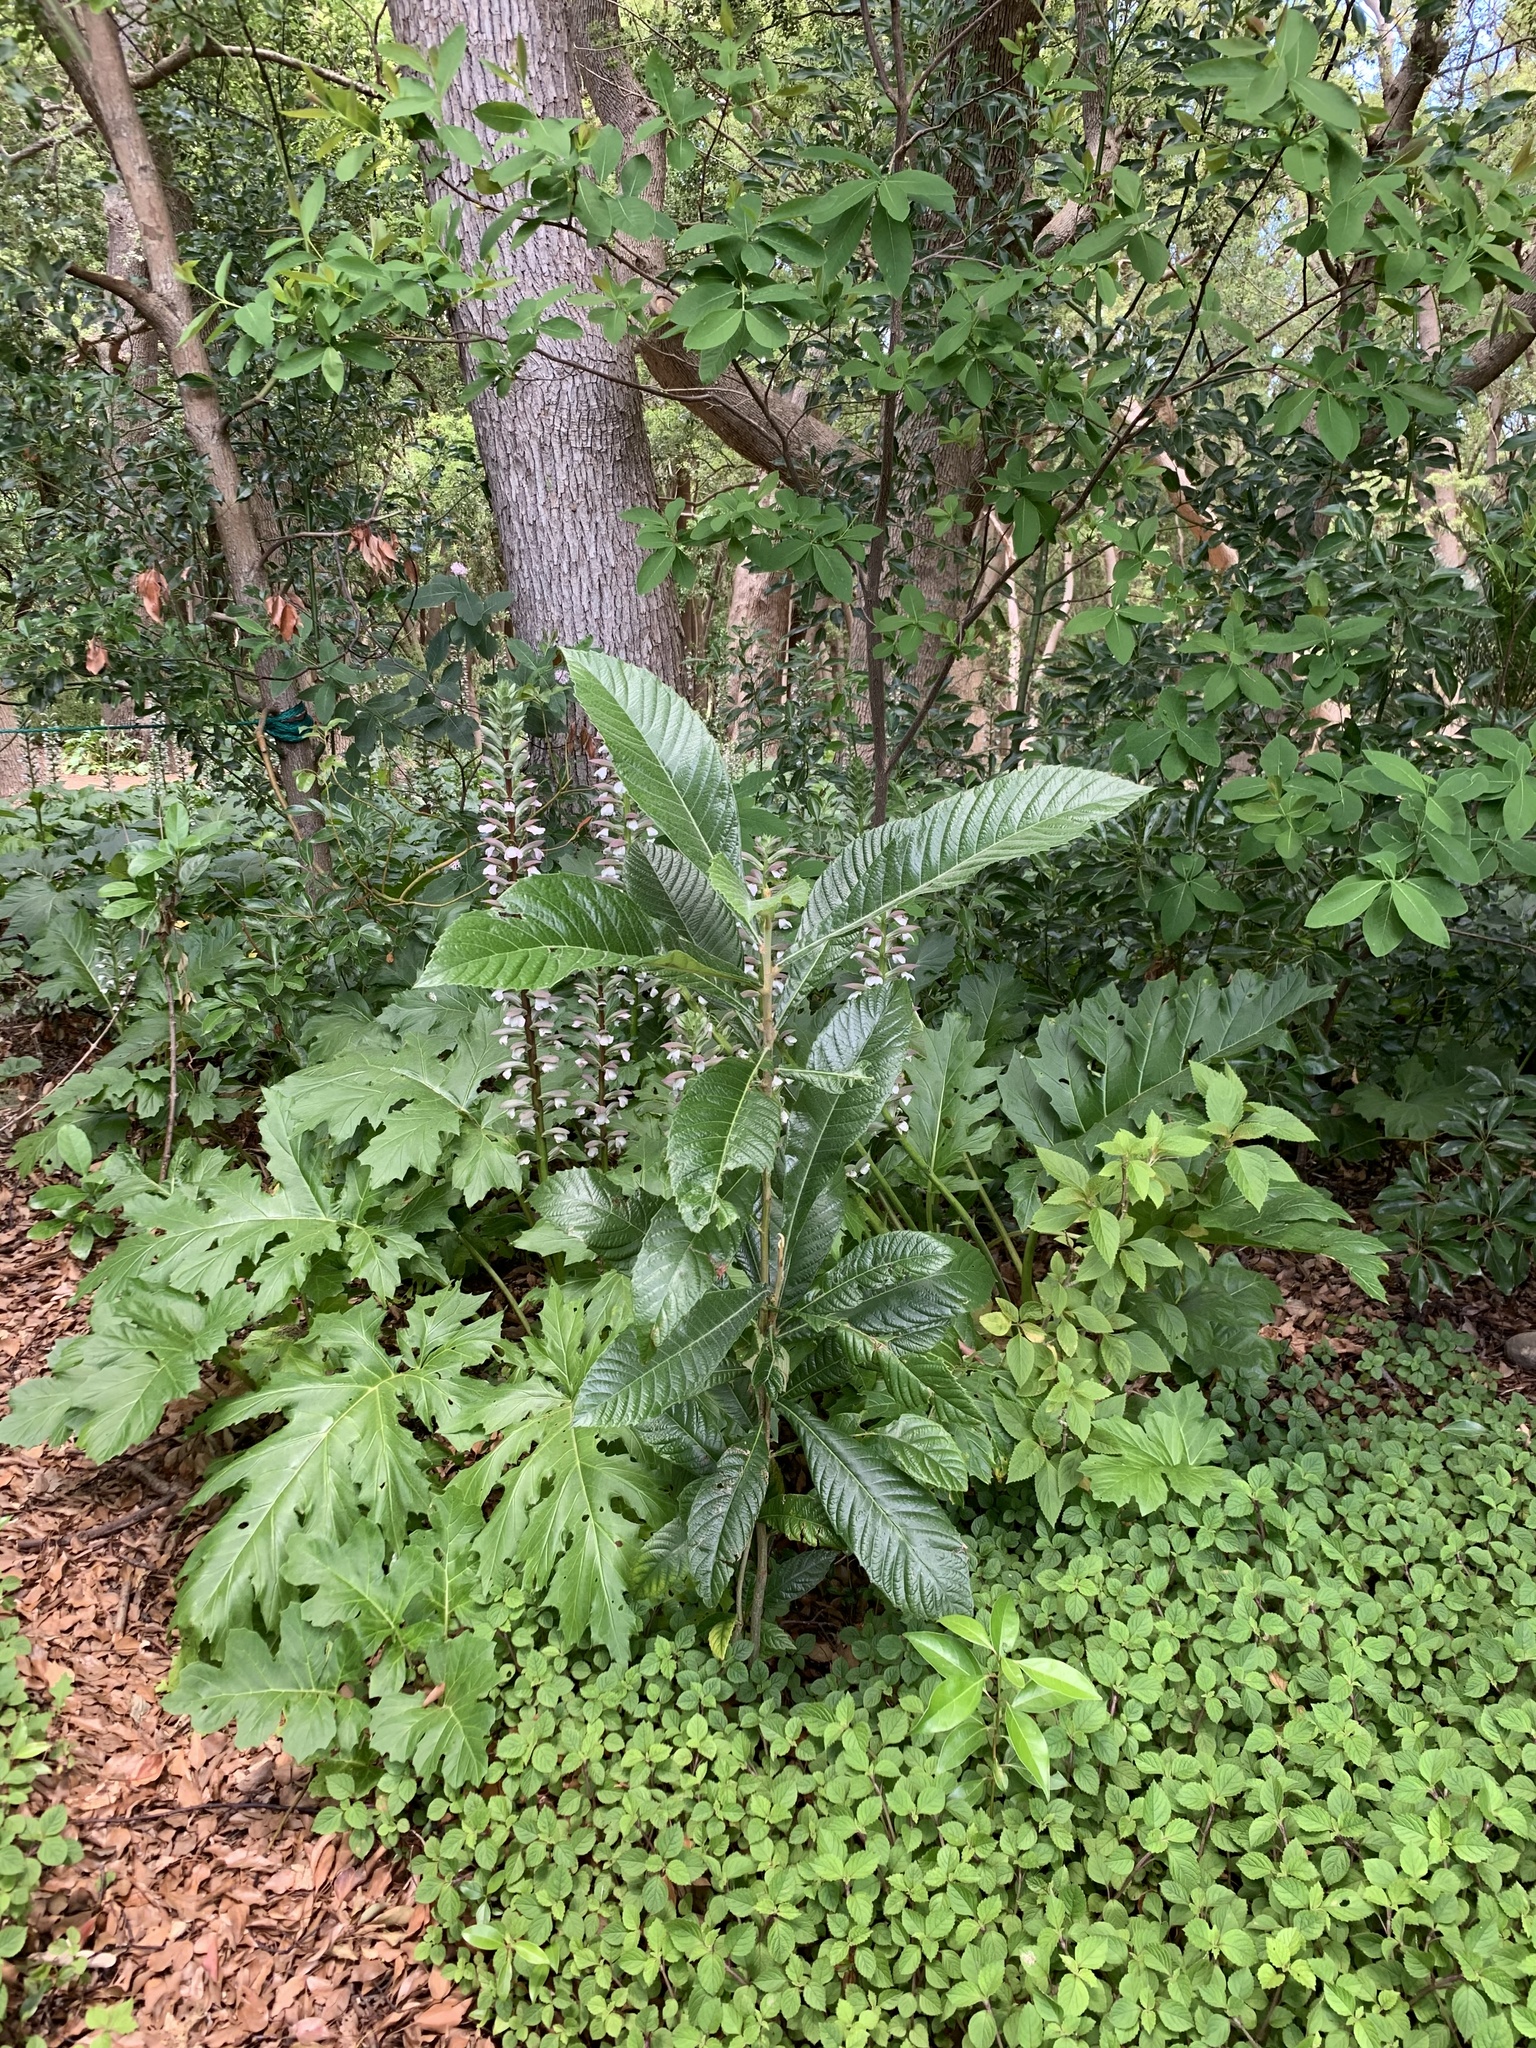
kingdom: Plantae
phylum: Tracheophyta
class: Magnoliopsida
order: Rosales
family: Rosaceae
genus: Rhaphiolepis
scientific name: Rhaphiolepis bibas
